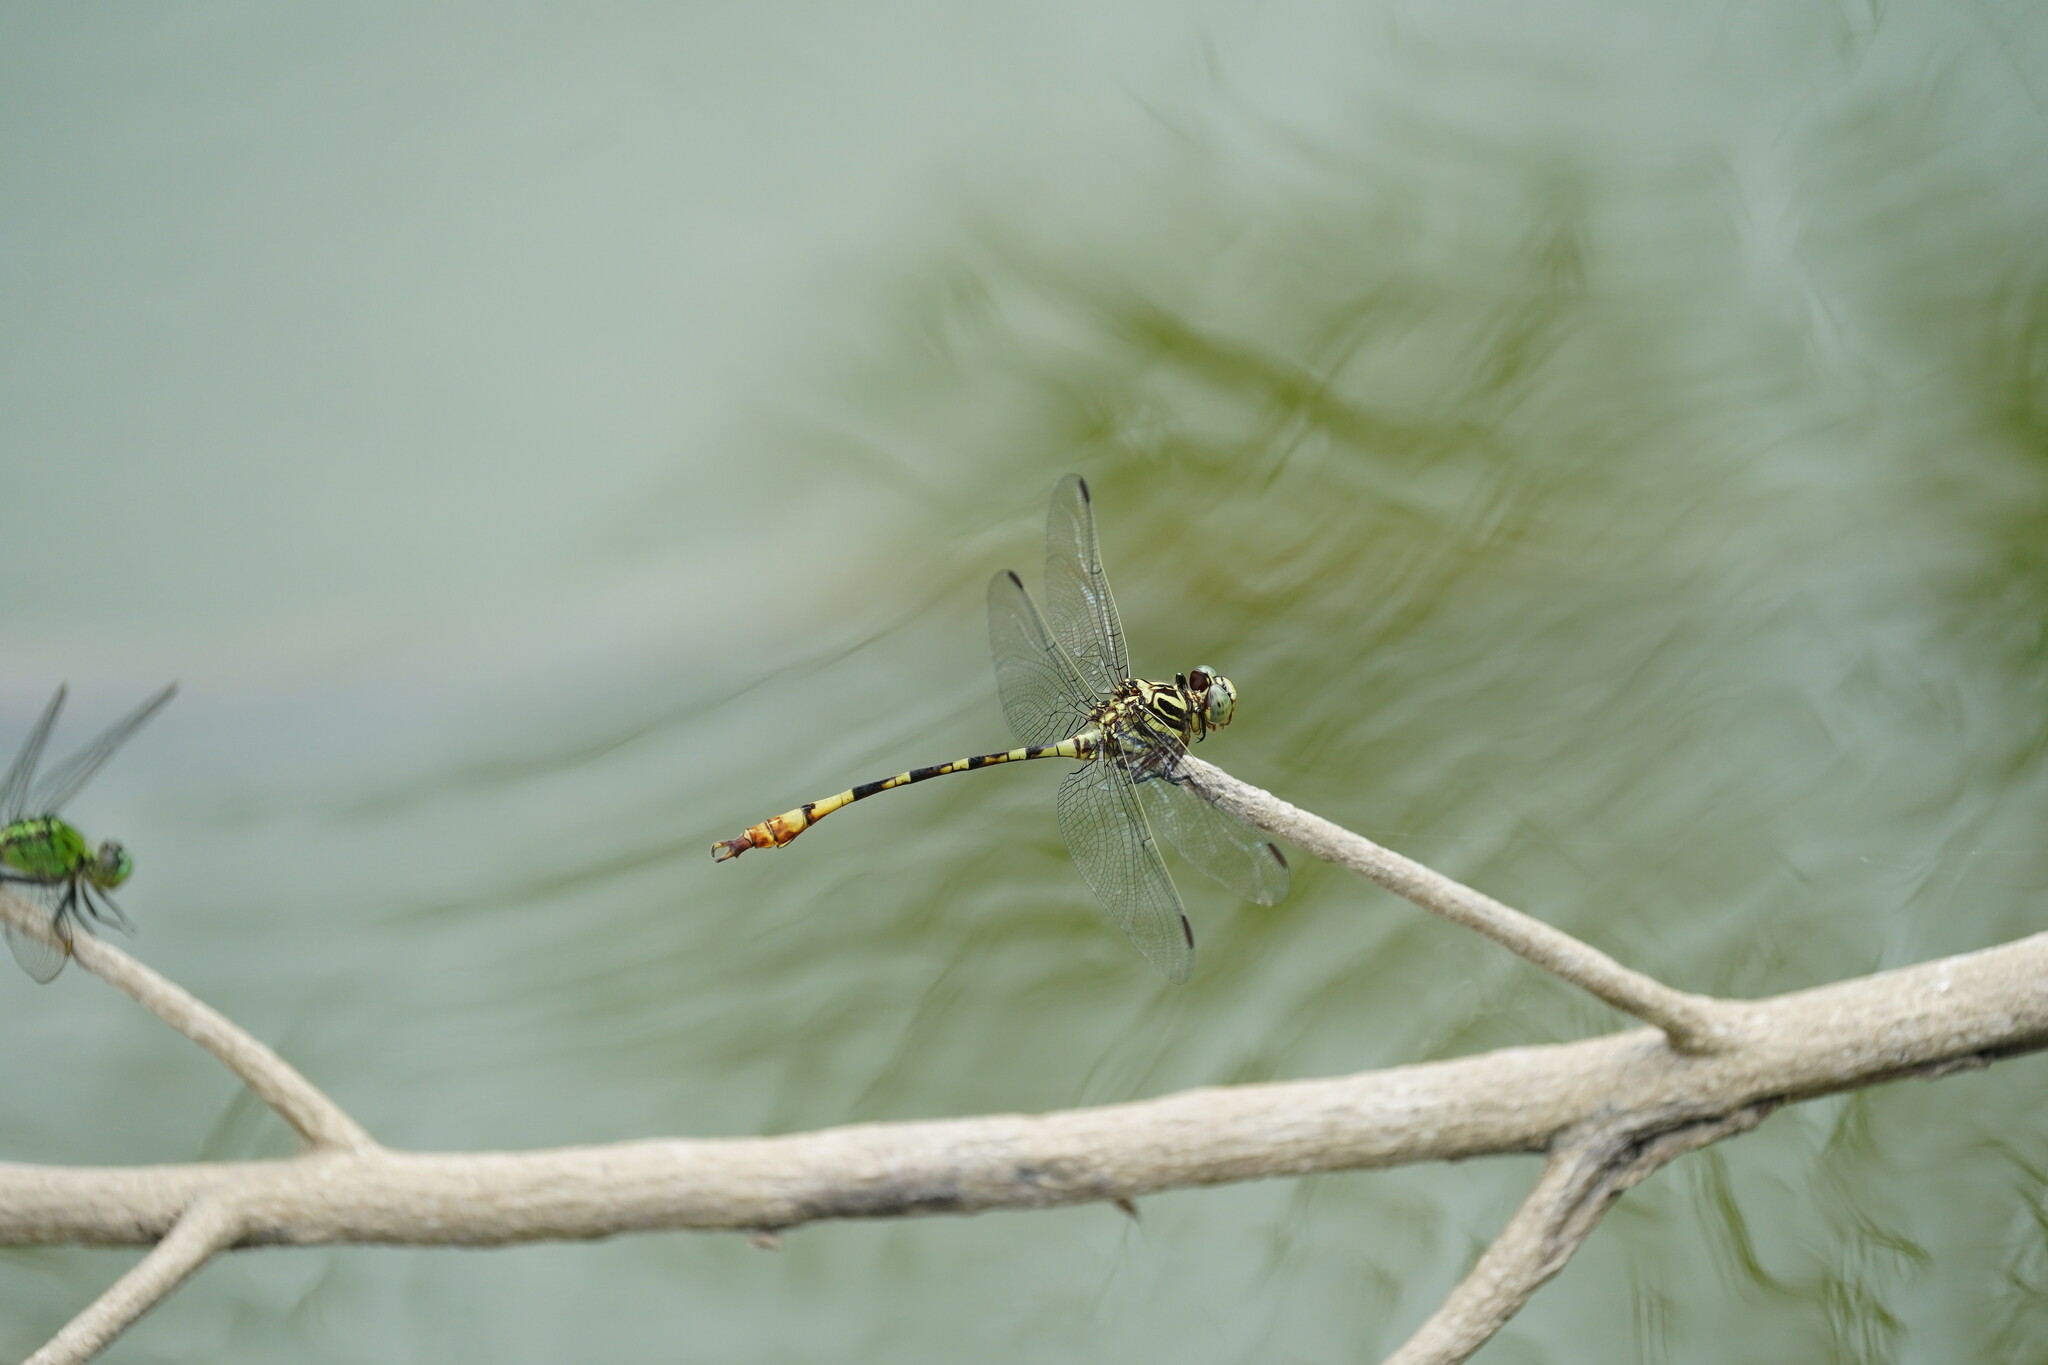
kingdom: Animalia
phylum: Arthropoda
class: Insecta
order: Odonata
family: Gomphidae
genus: Aphylla
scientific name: Aphylla angustifolia
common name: Broad-striped forceptail
